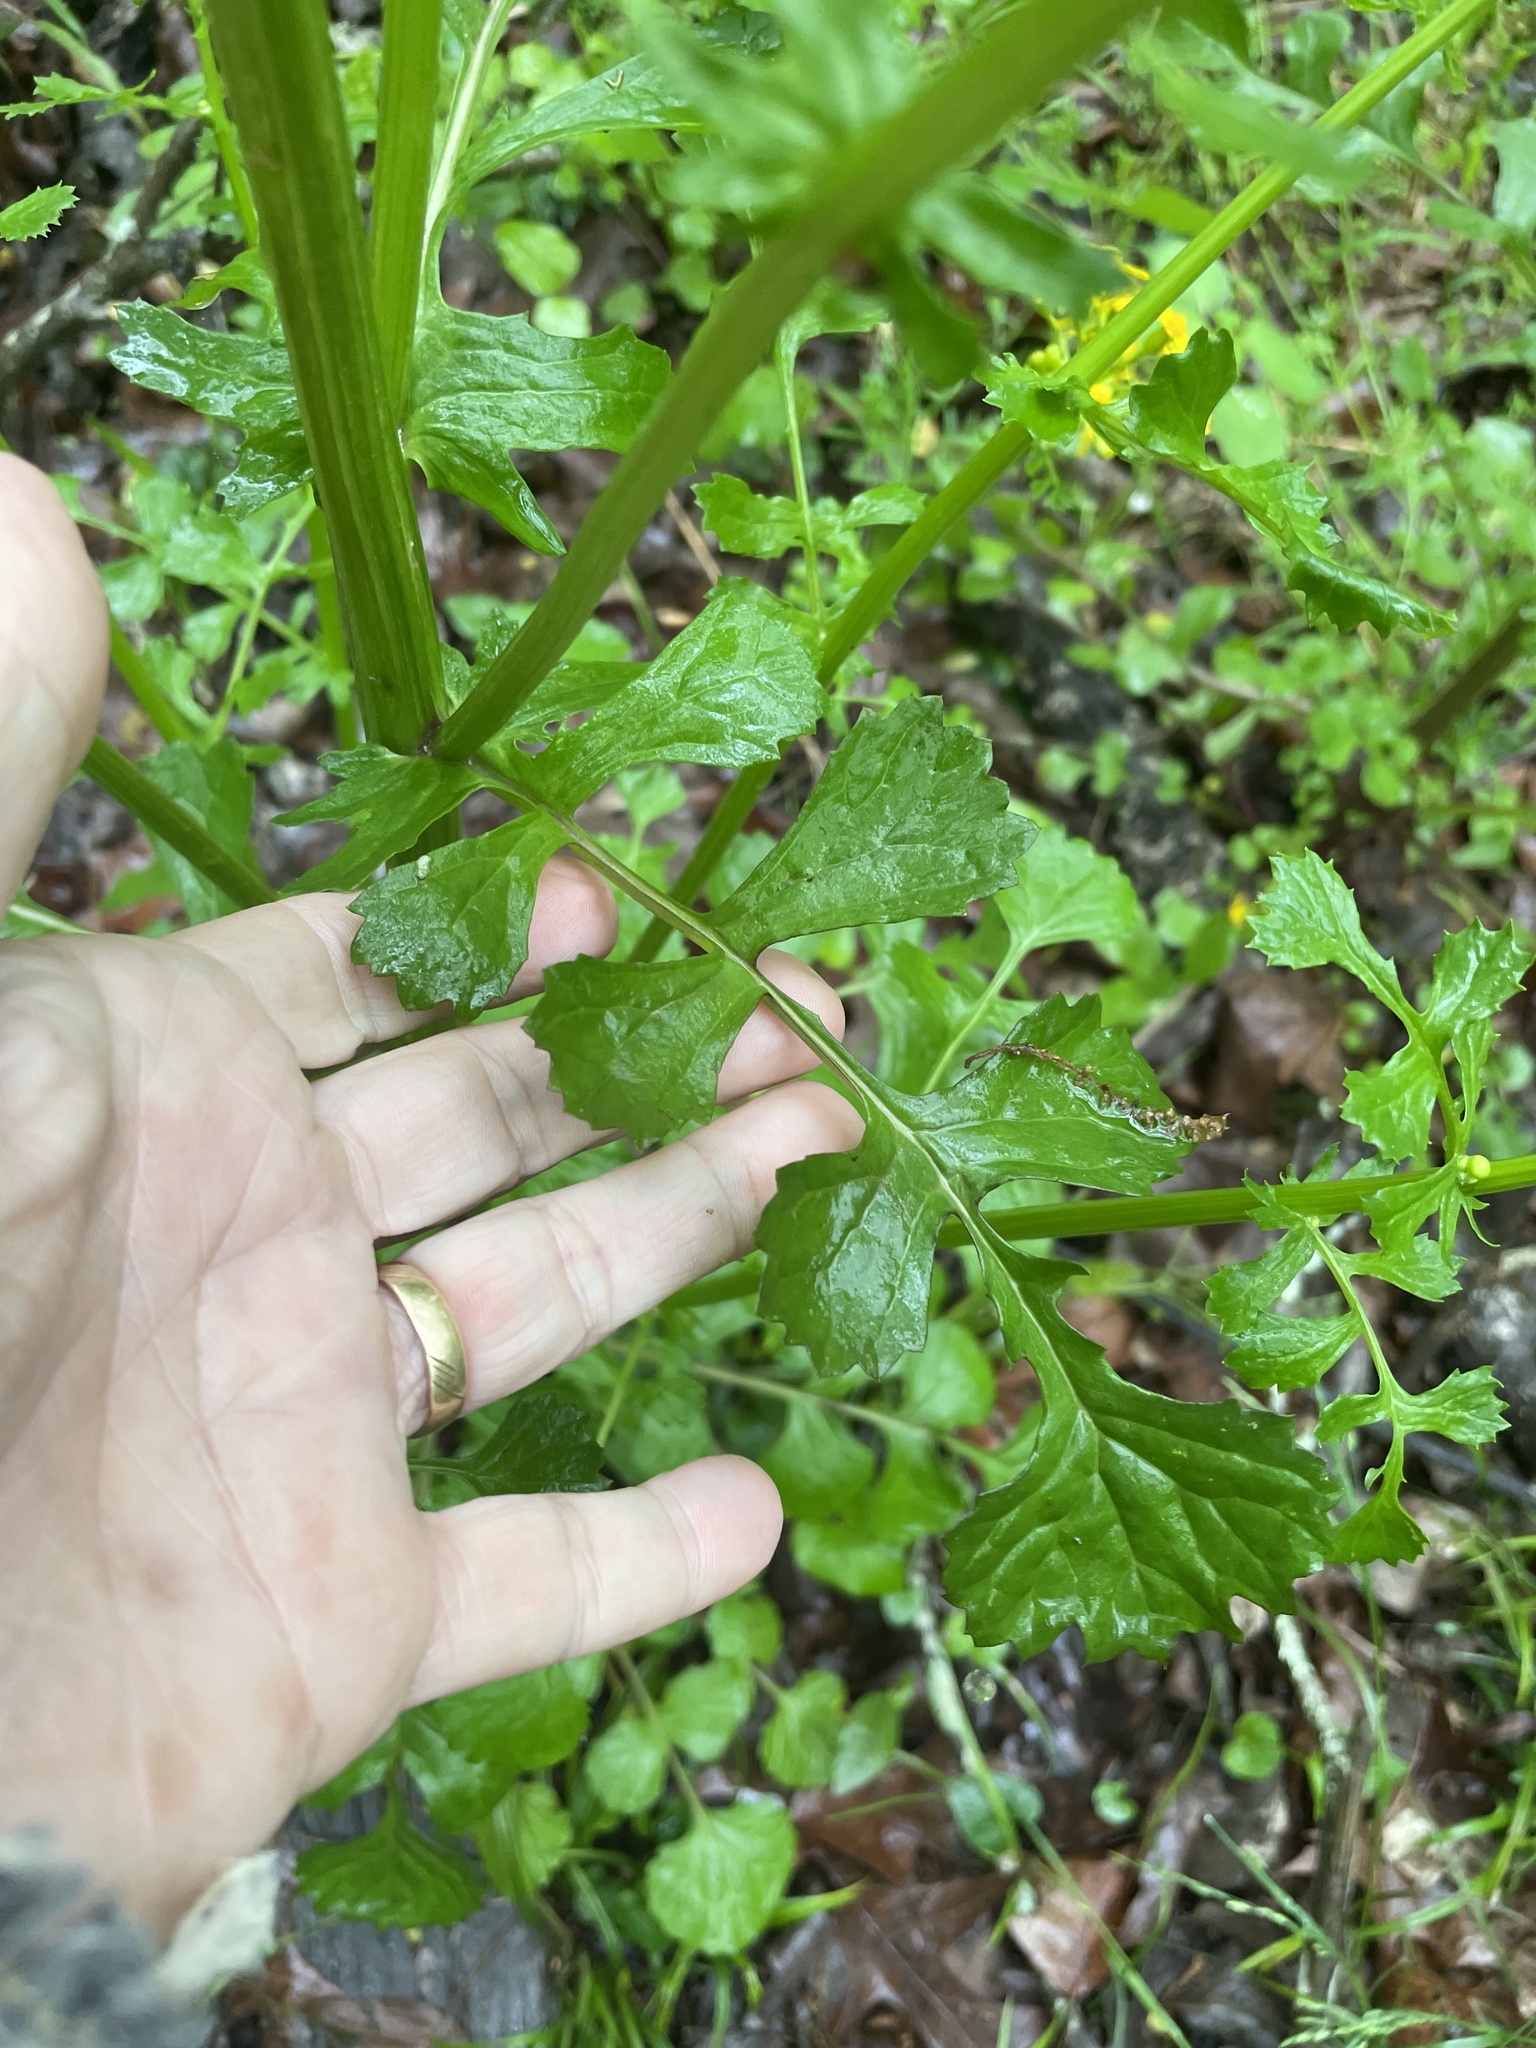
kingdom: Plantae
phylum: Tracheophyta
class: Magnoliopsida
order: Asterales
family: Asteraceae
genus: Packera
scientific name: Packera glabella
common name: Butterweed
